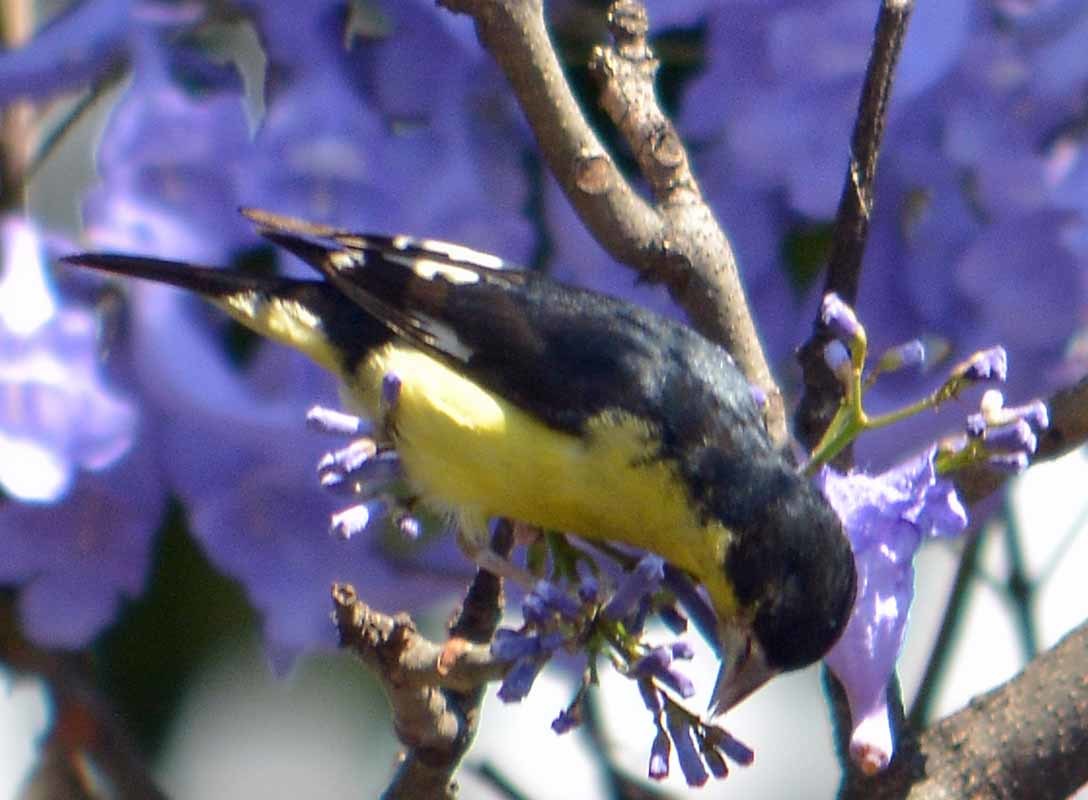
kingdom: Animalia
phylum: Chordata
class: Aves
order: Passeriformes
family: Fringillidae
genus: Spinus
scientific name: Spinus psaltria
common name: Lesser goldfinch
